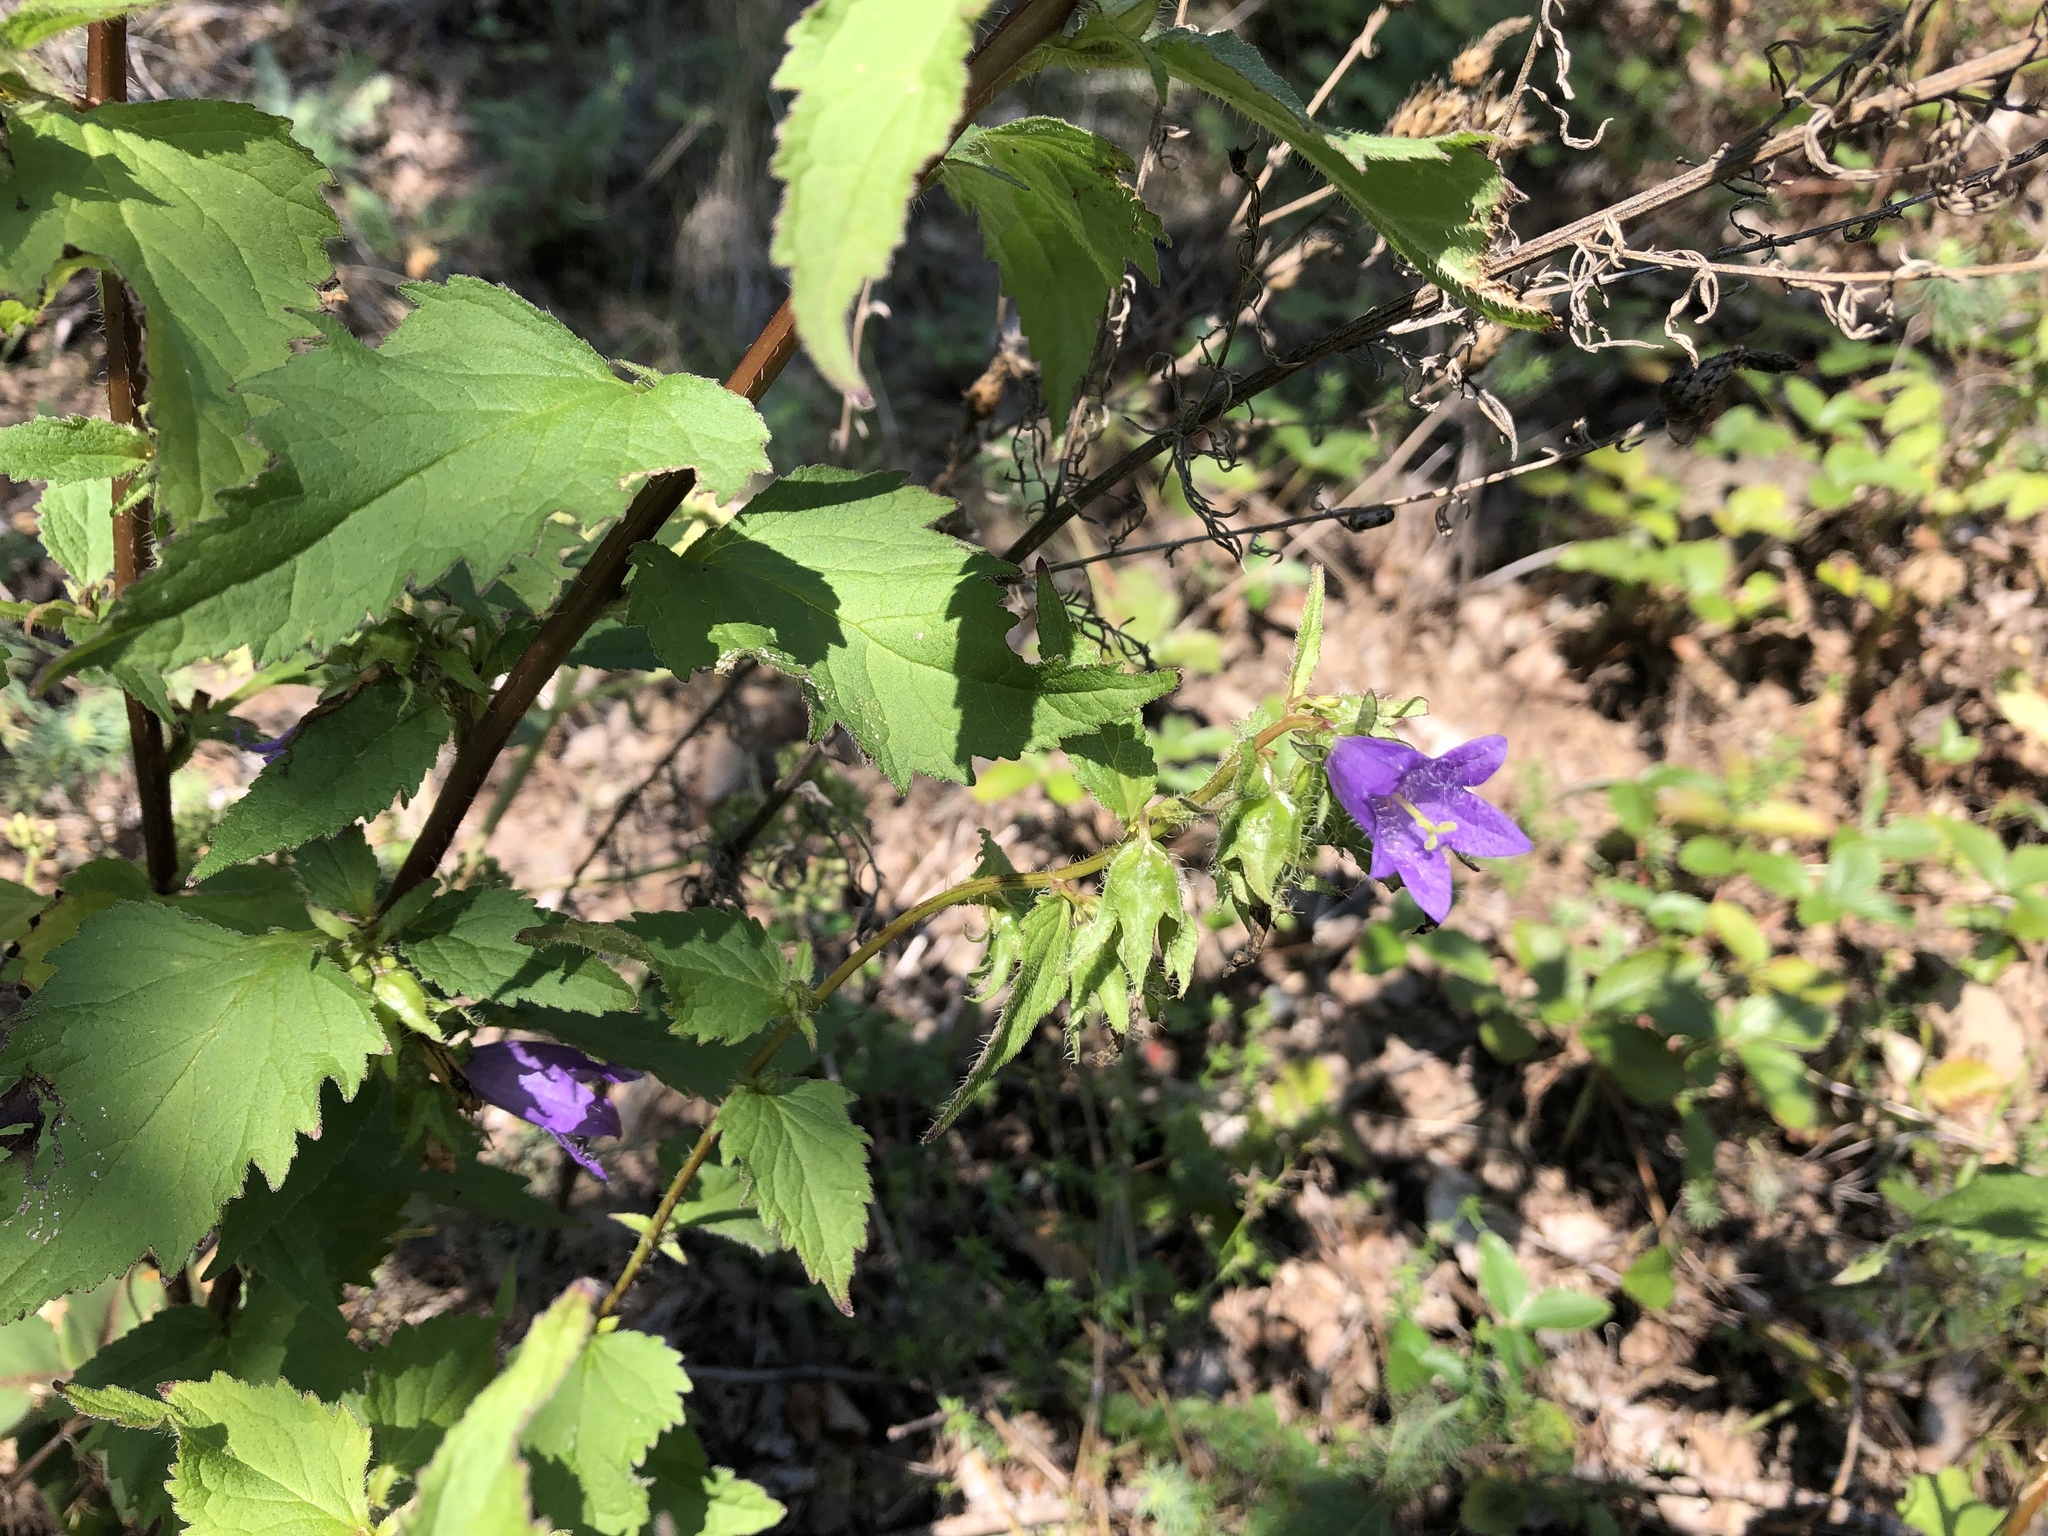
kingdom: Plantae
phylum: Tracheophyta
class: Magnoliopsida
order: Asterales
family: Campanulaceae
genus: Campanula
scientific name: Campanula trachelium
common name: Nettle-leaved bellflower
